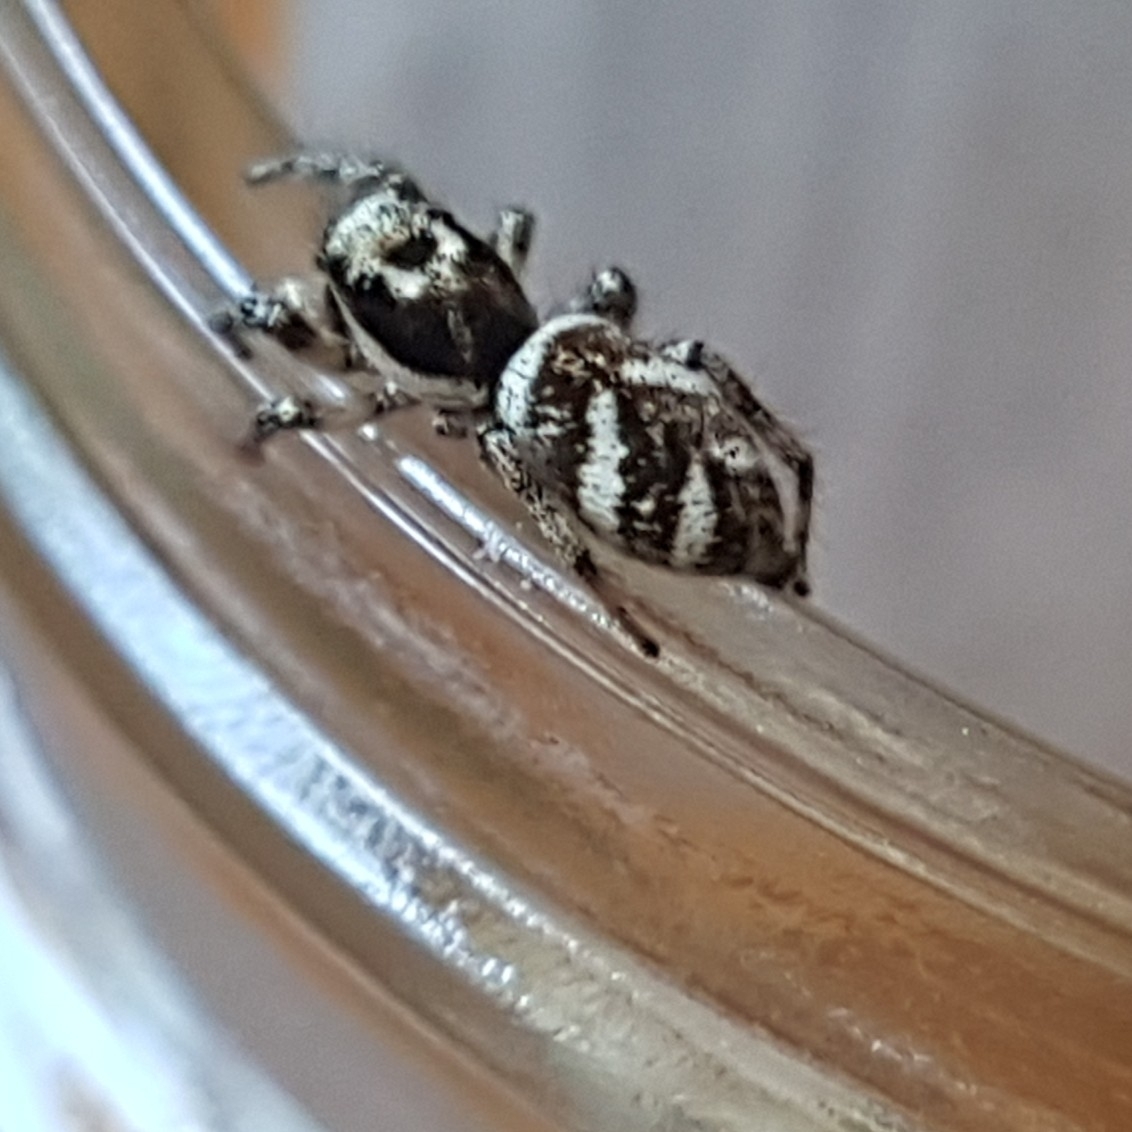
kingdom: Animalia
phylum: Arthropoda
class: Arachnida
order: Araneae
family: Salticidae
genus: Salticus
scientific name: Salticus scenicus
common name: Zebra jumper
